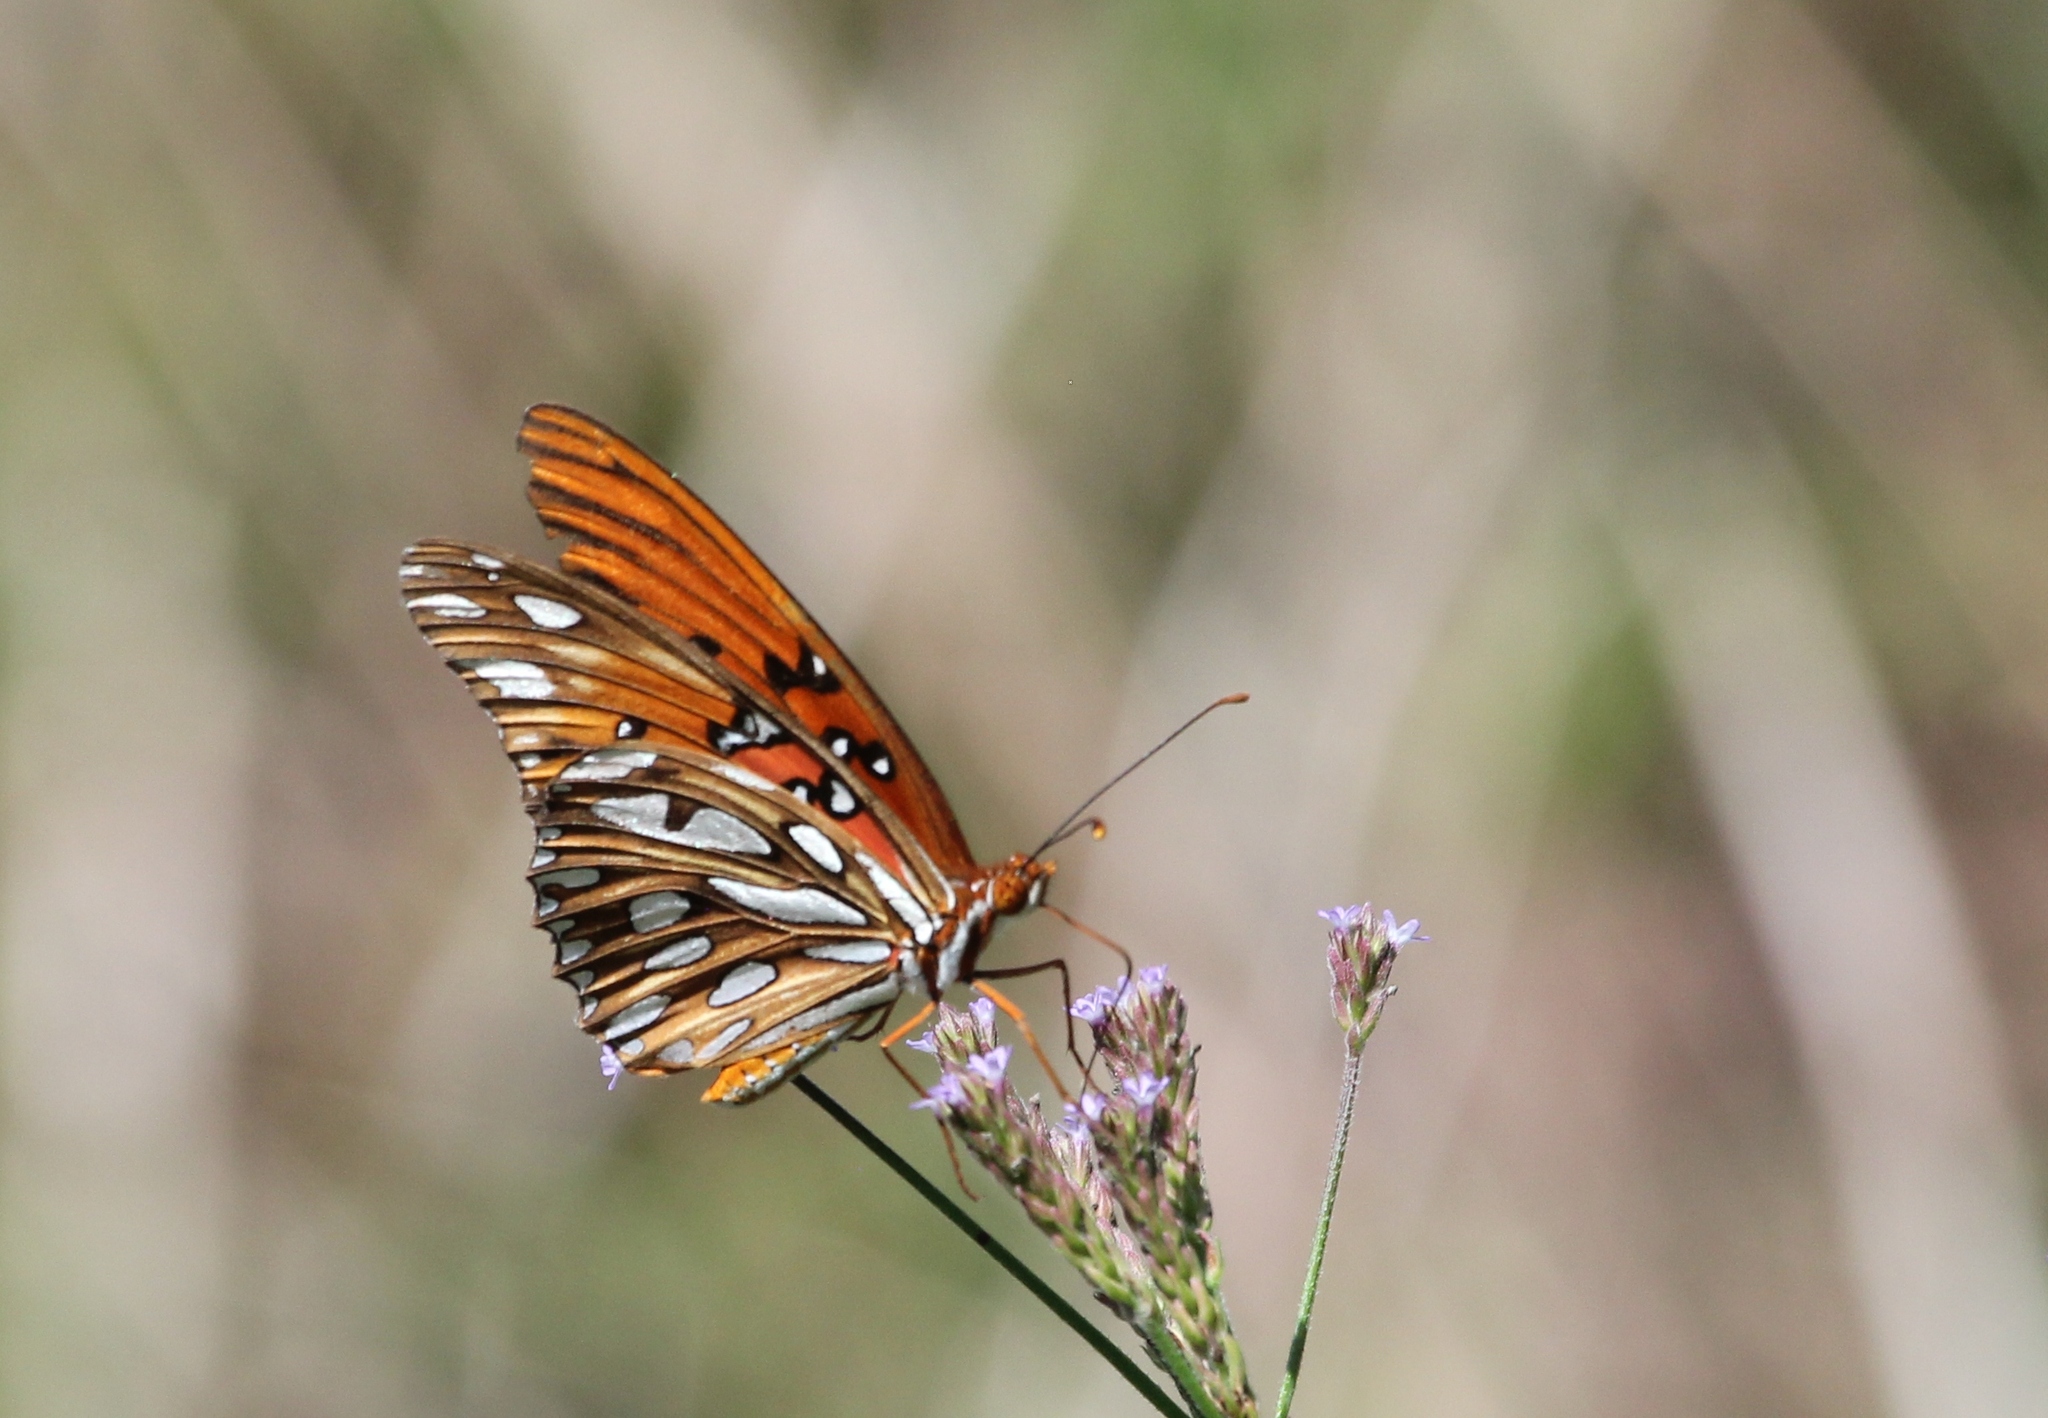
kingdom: Animalia
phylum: Arthropoda
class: Insecta
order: Lepidoptera
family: Nymphalidae
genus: Dione
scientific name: Dione vanillae
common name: Gulf fritillary
